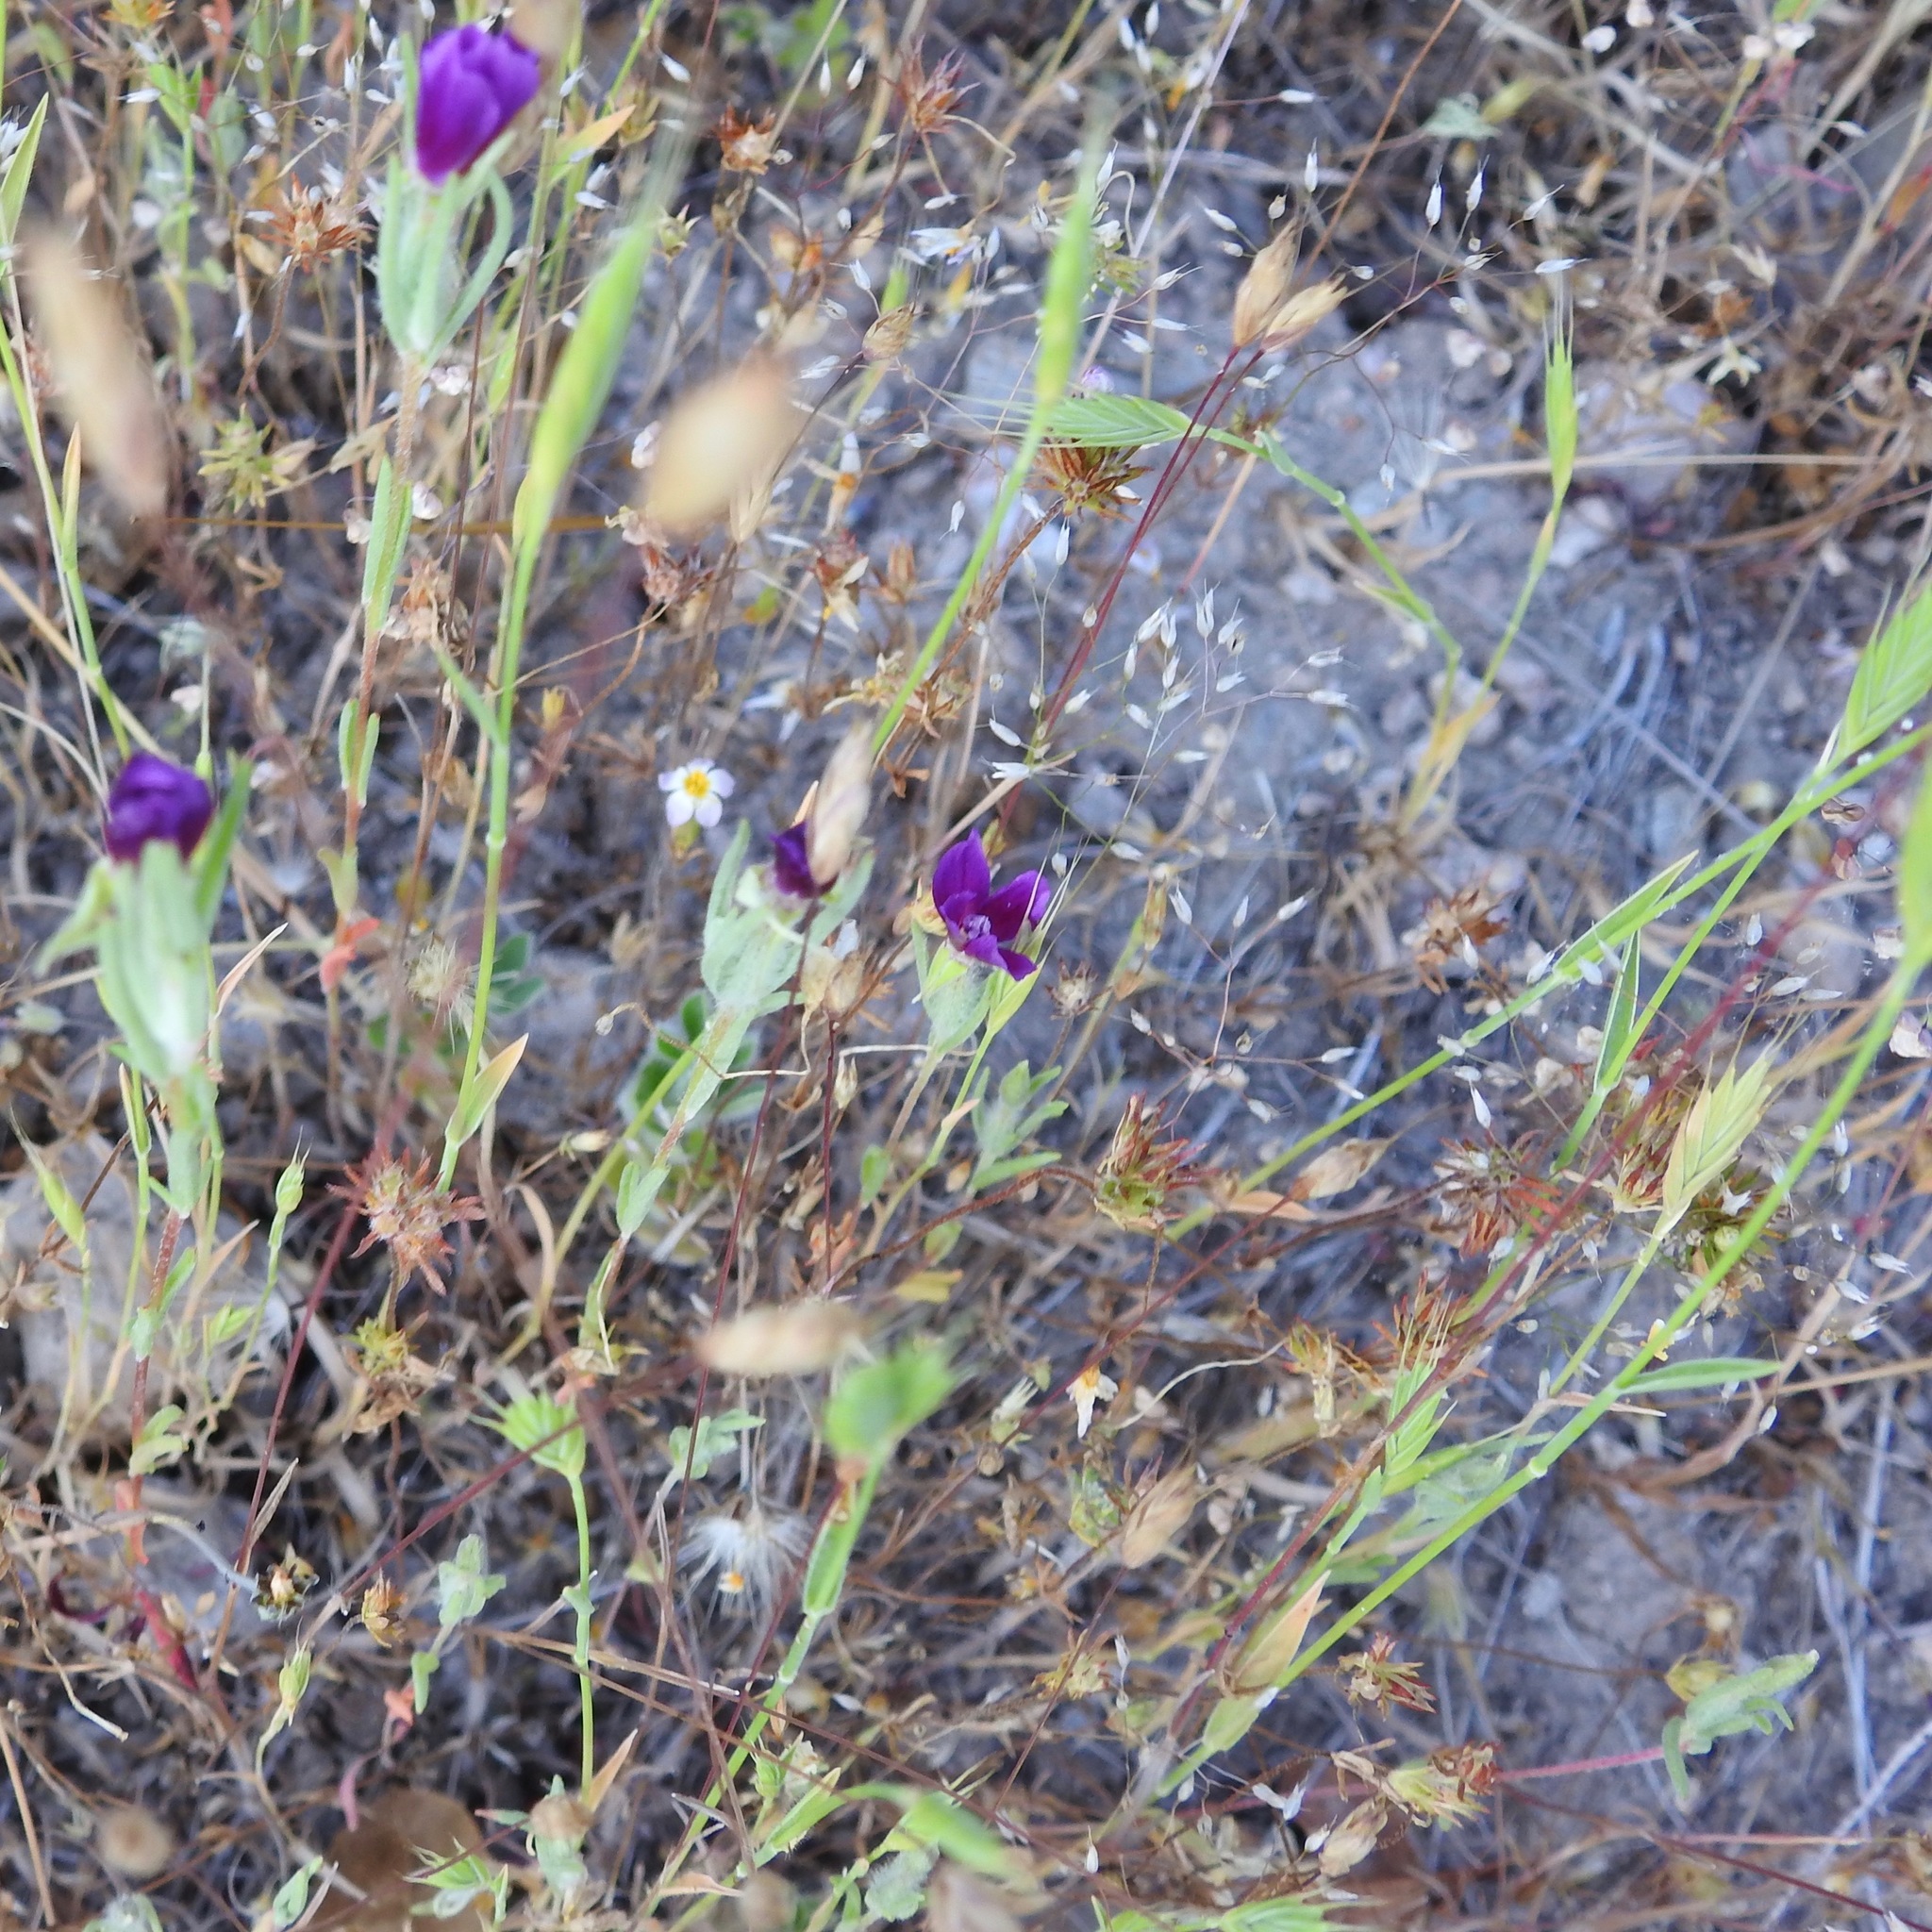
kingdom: Plantae
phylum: Tracheophyta
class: Magnoliopsida
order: Myrtales
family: Onagraceae
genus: Clarkia
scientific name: Clarkia purpurea
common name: Purple clarkia
